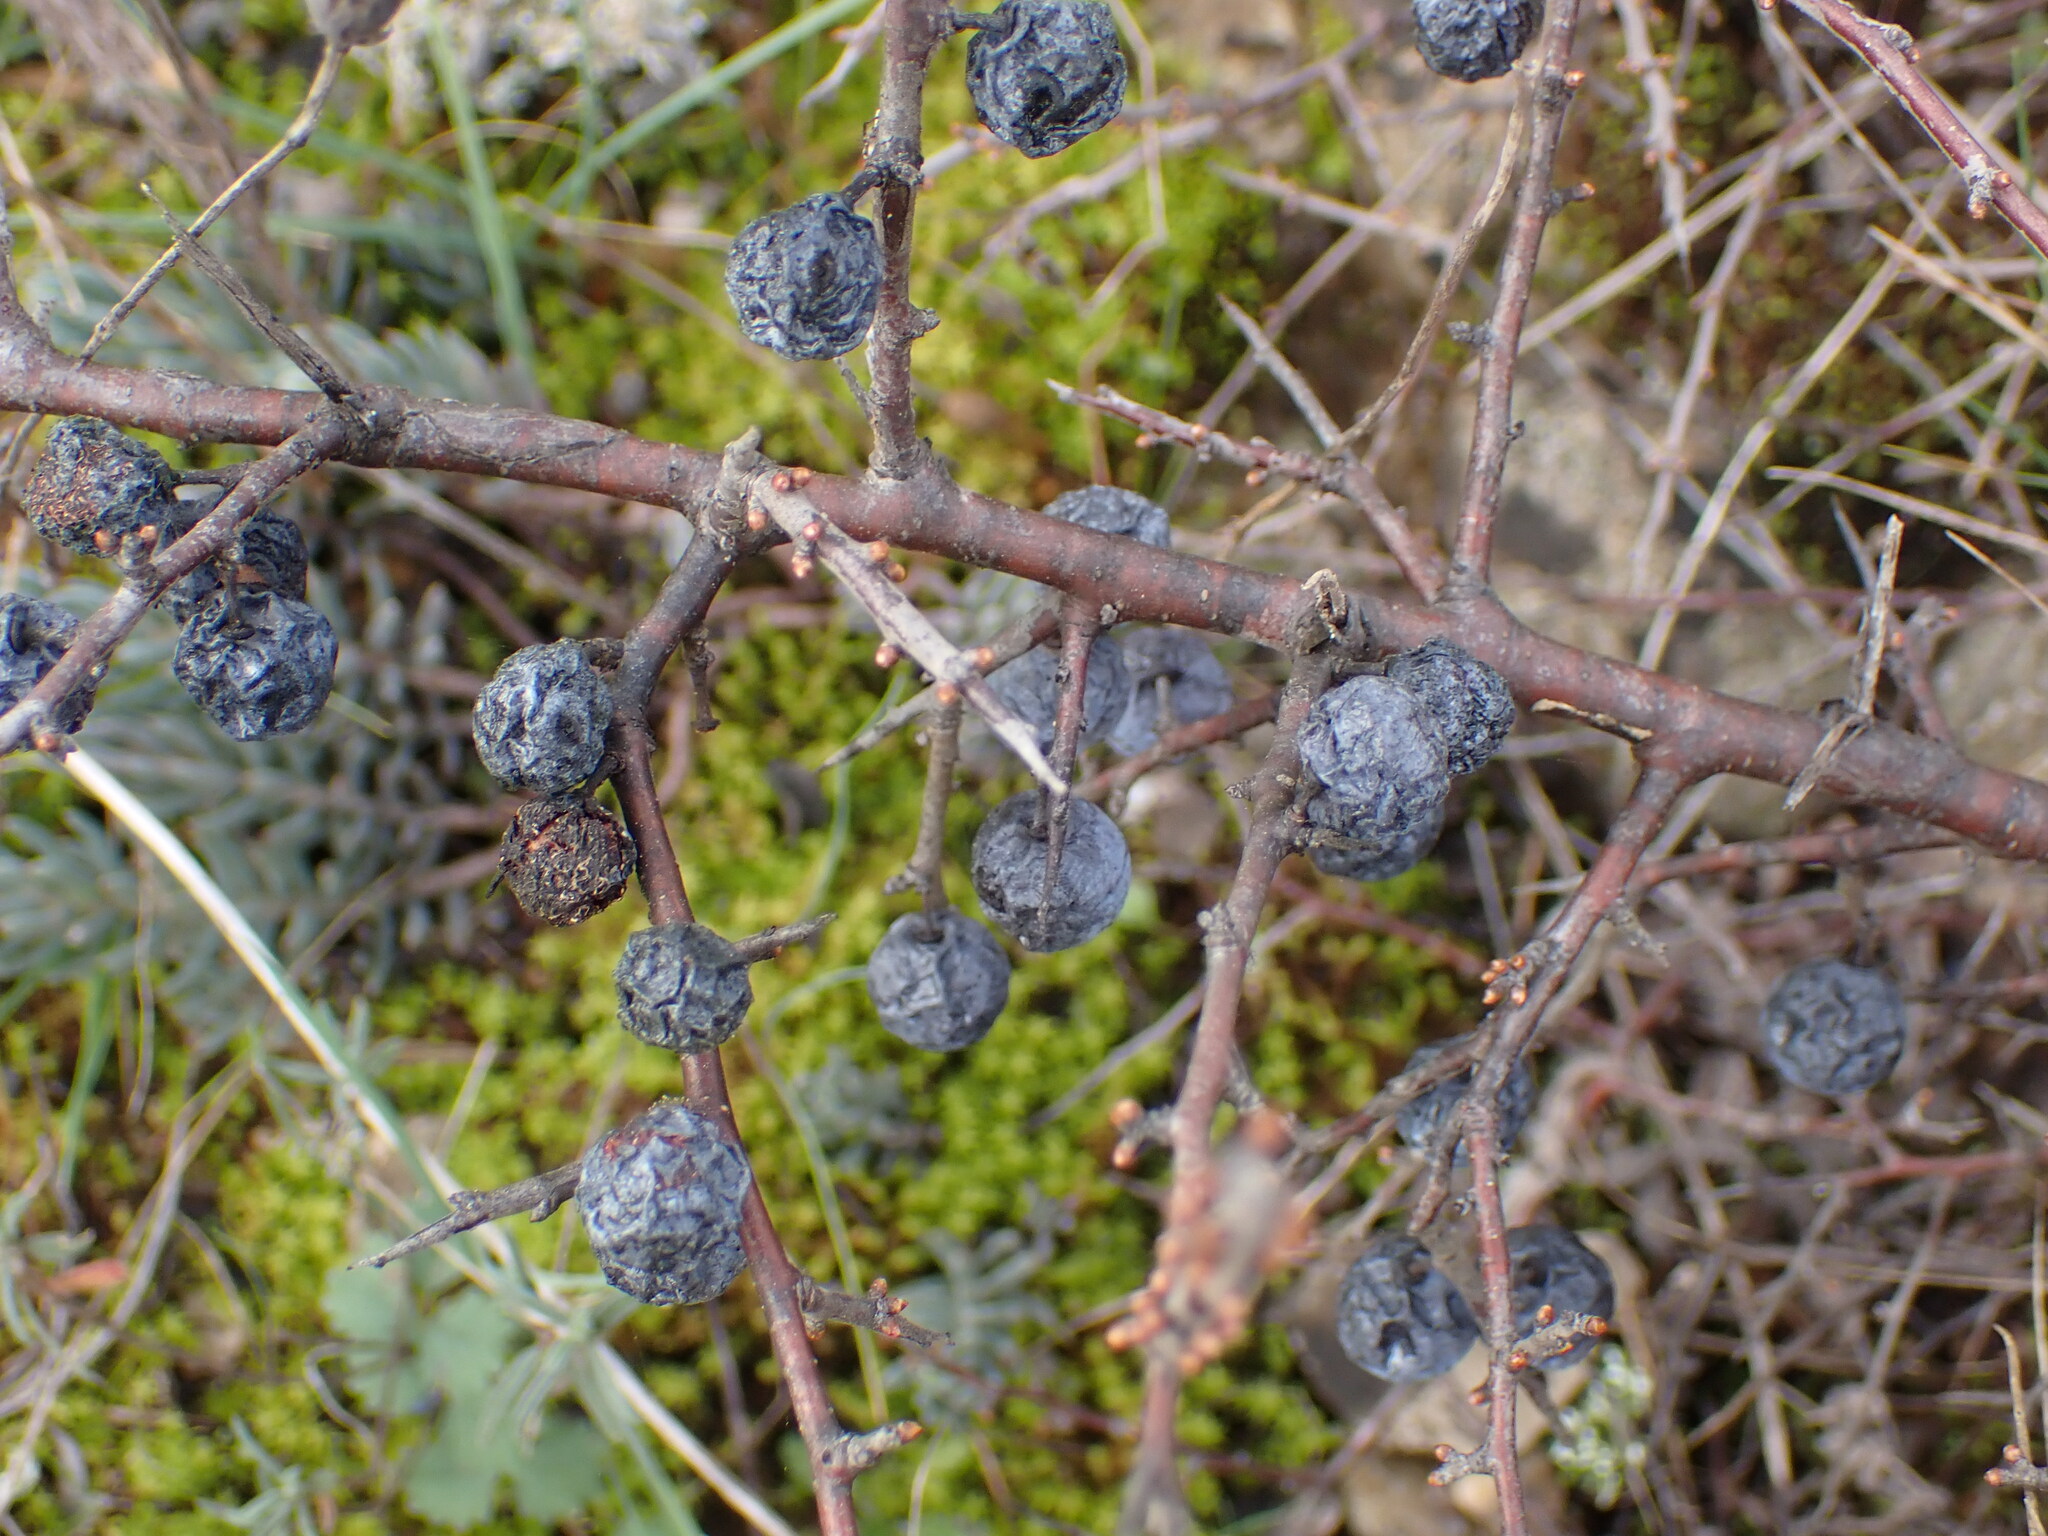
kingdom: Plantae
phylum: Tracheophyta
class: Magnoliopsida
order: Rosales
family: Rosaceae
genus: Prunus
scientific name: Prunus spinosa
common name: Blackthorn
